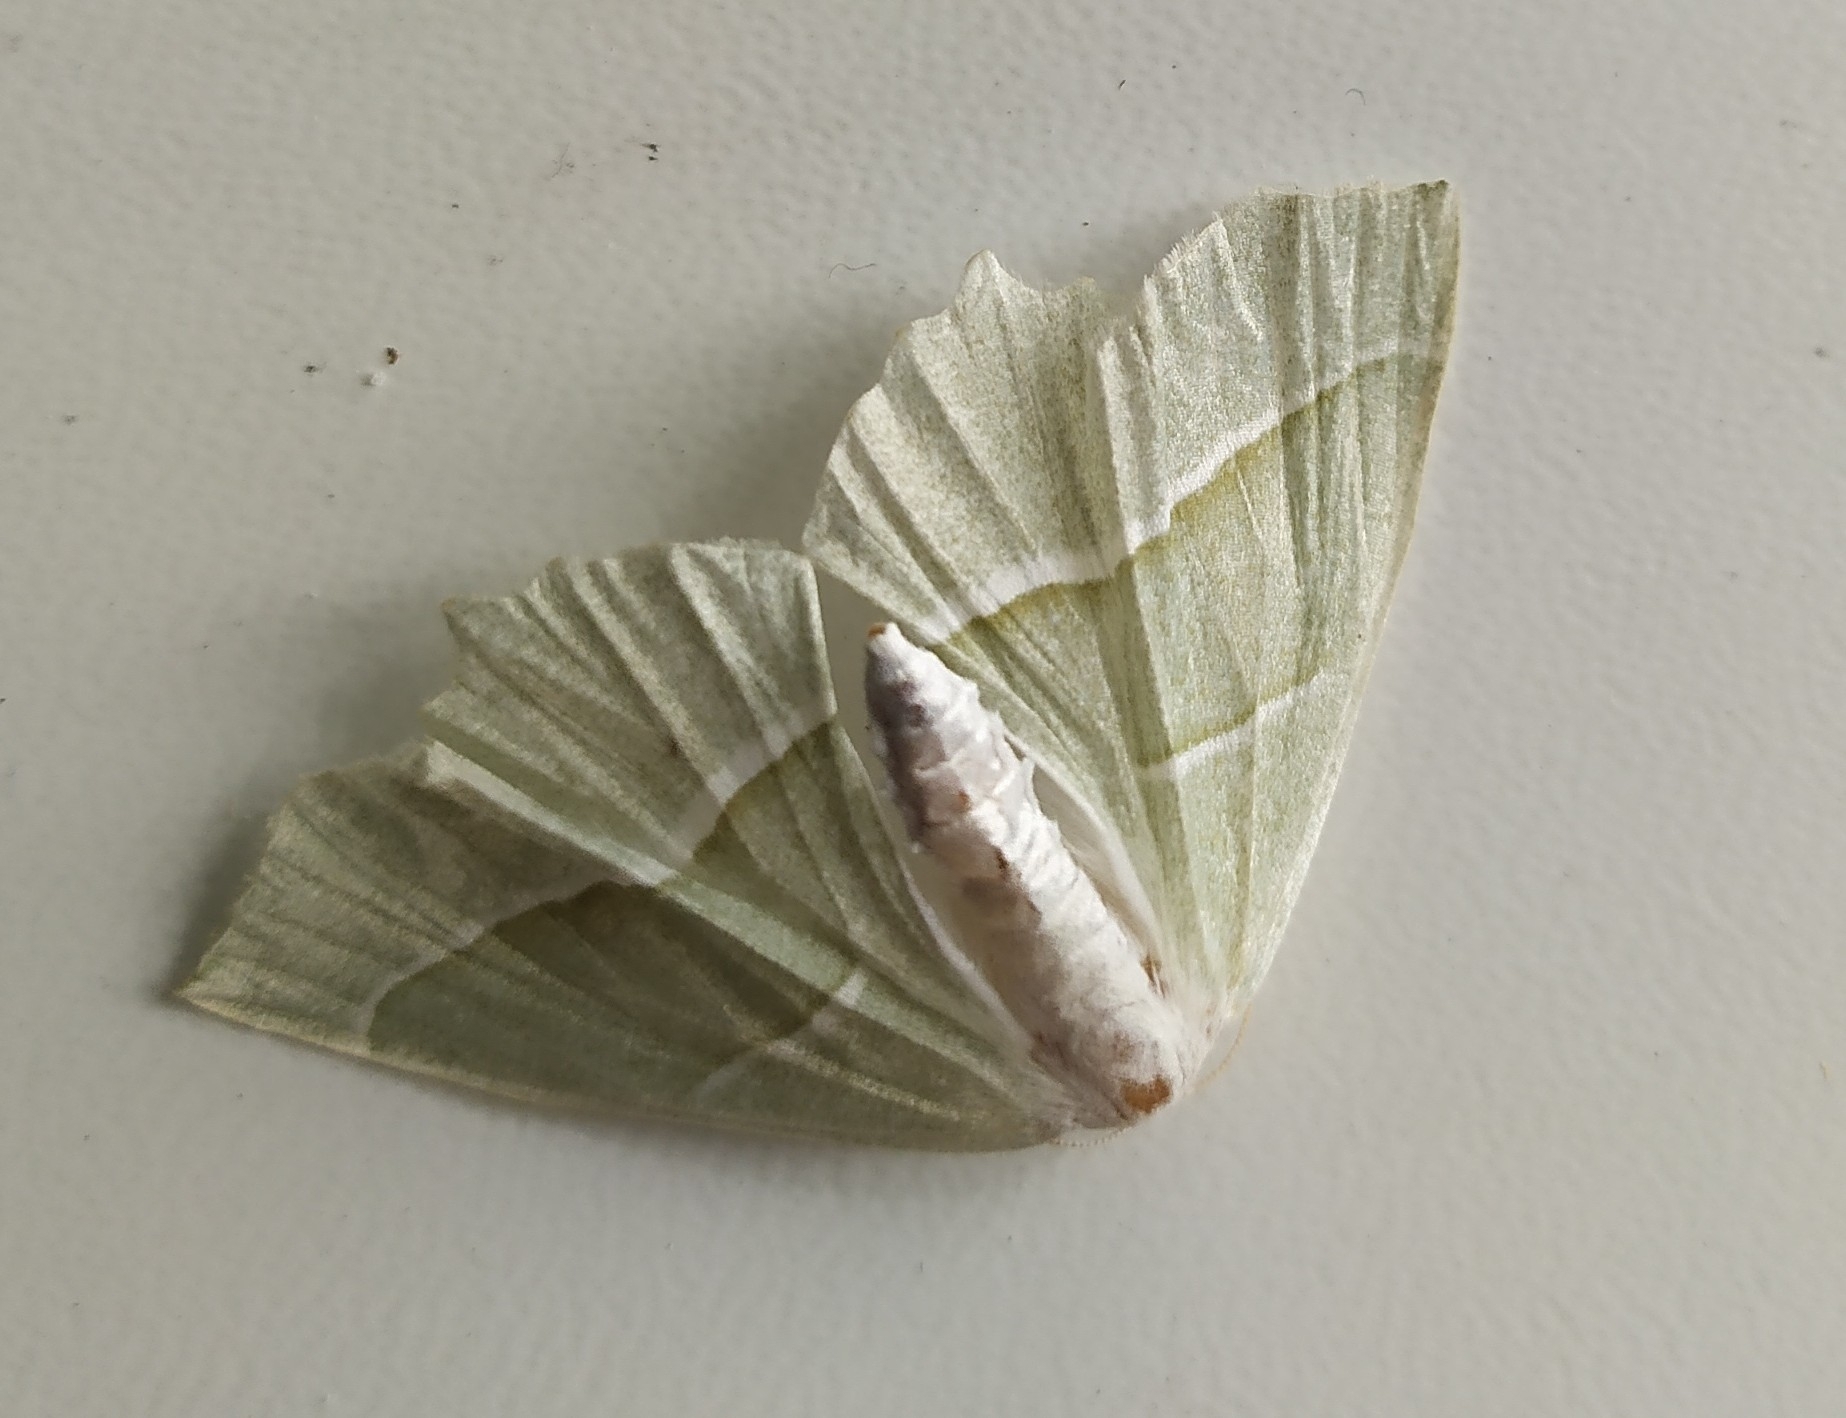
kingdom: Animalia
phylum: Arthropoda
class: Insecta
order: Lepidoptera
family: Geometridae
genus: Campaea
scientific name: Campaea margaritaria
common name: Light emerald
